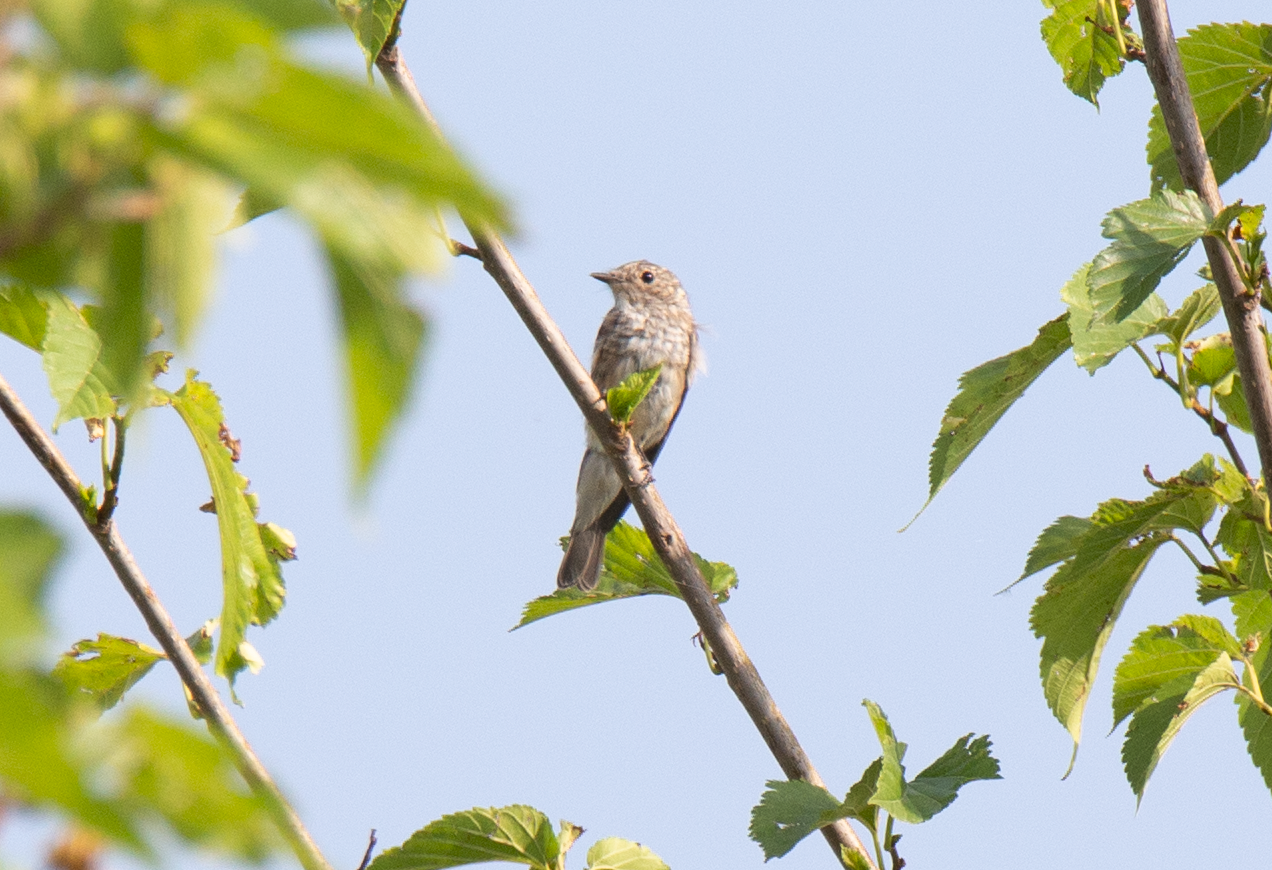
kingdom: Animalia
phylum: Chordata
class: Aves
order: Passeriformes
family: Muscicapidae
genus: Muscicapa
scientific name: Muscicapa striata
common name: Spotted flycatcher
